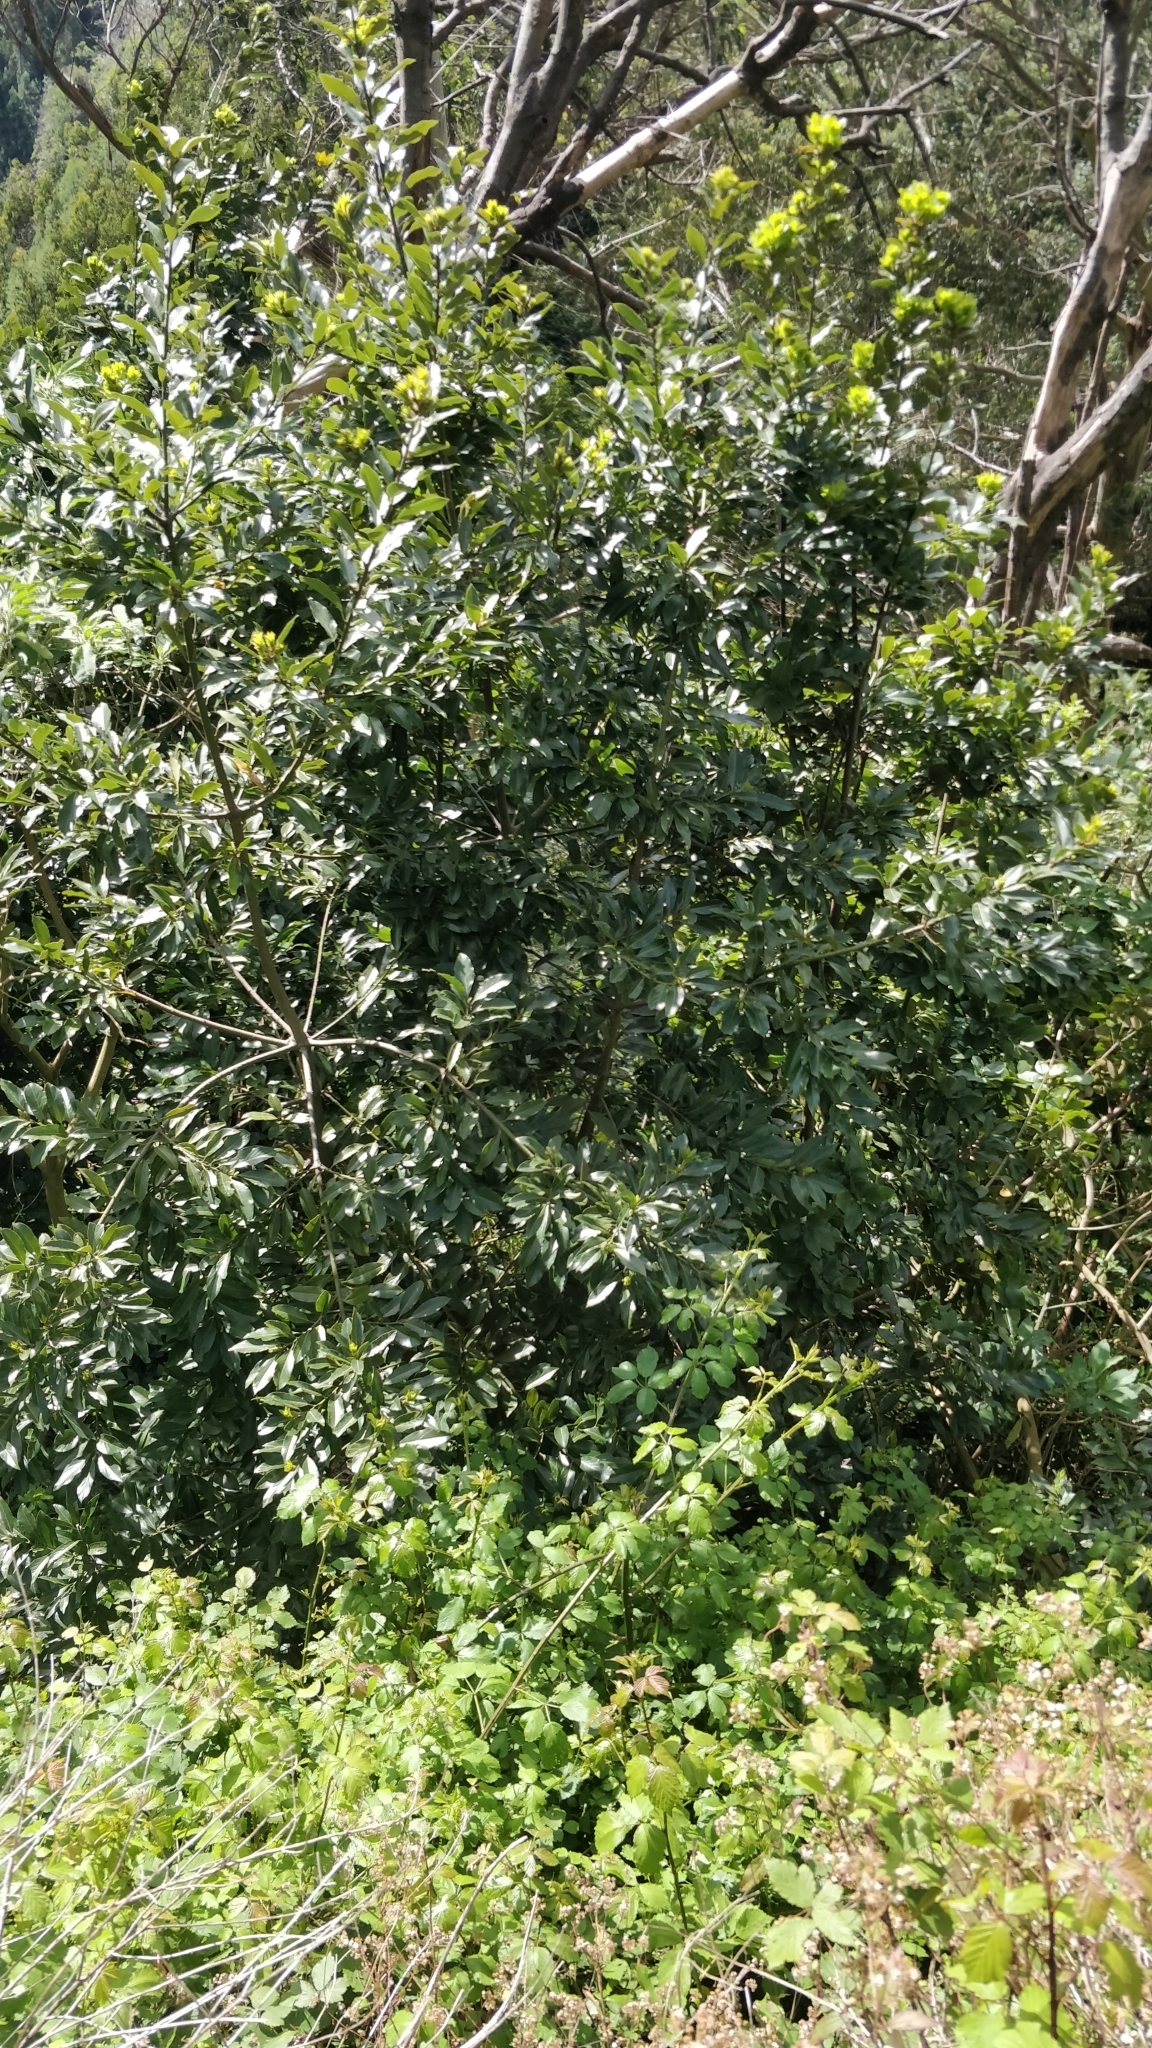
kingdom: Plantae
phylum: Tracheophyta
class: Magnoliopsida
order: Laurales
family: Lauraceae
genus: Laurus
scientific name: Laurus novocanariensis
